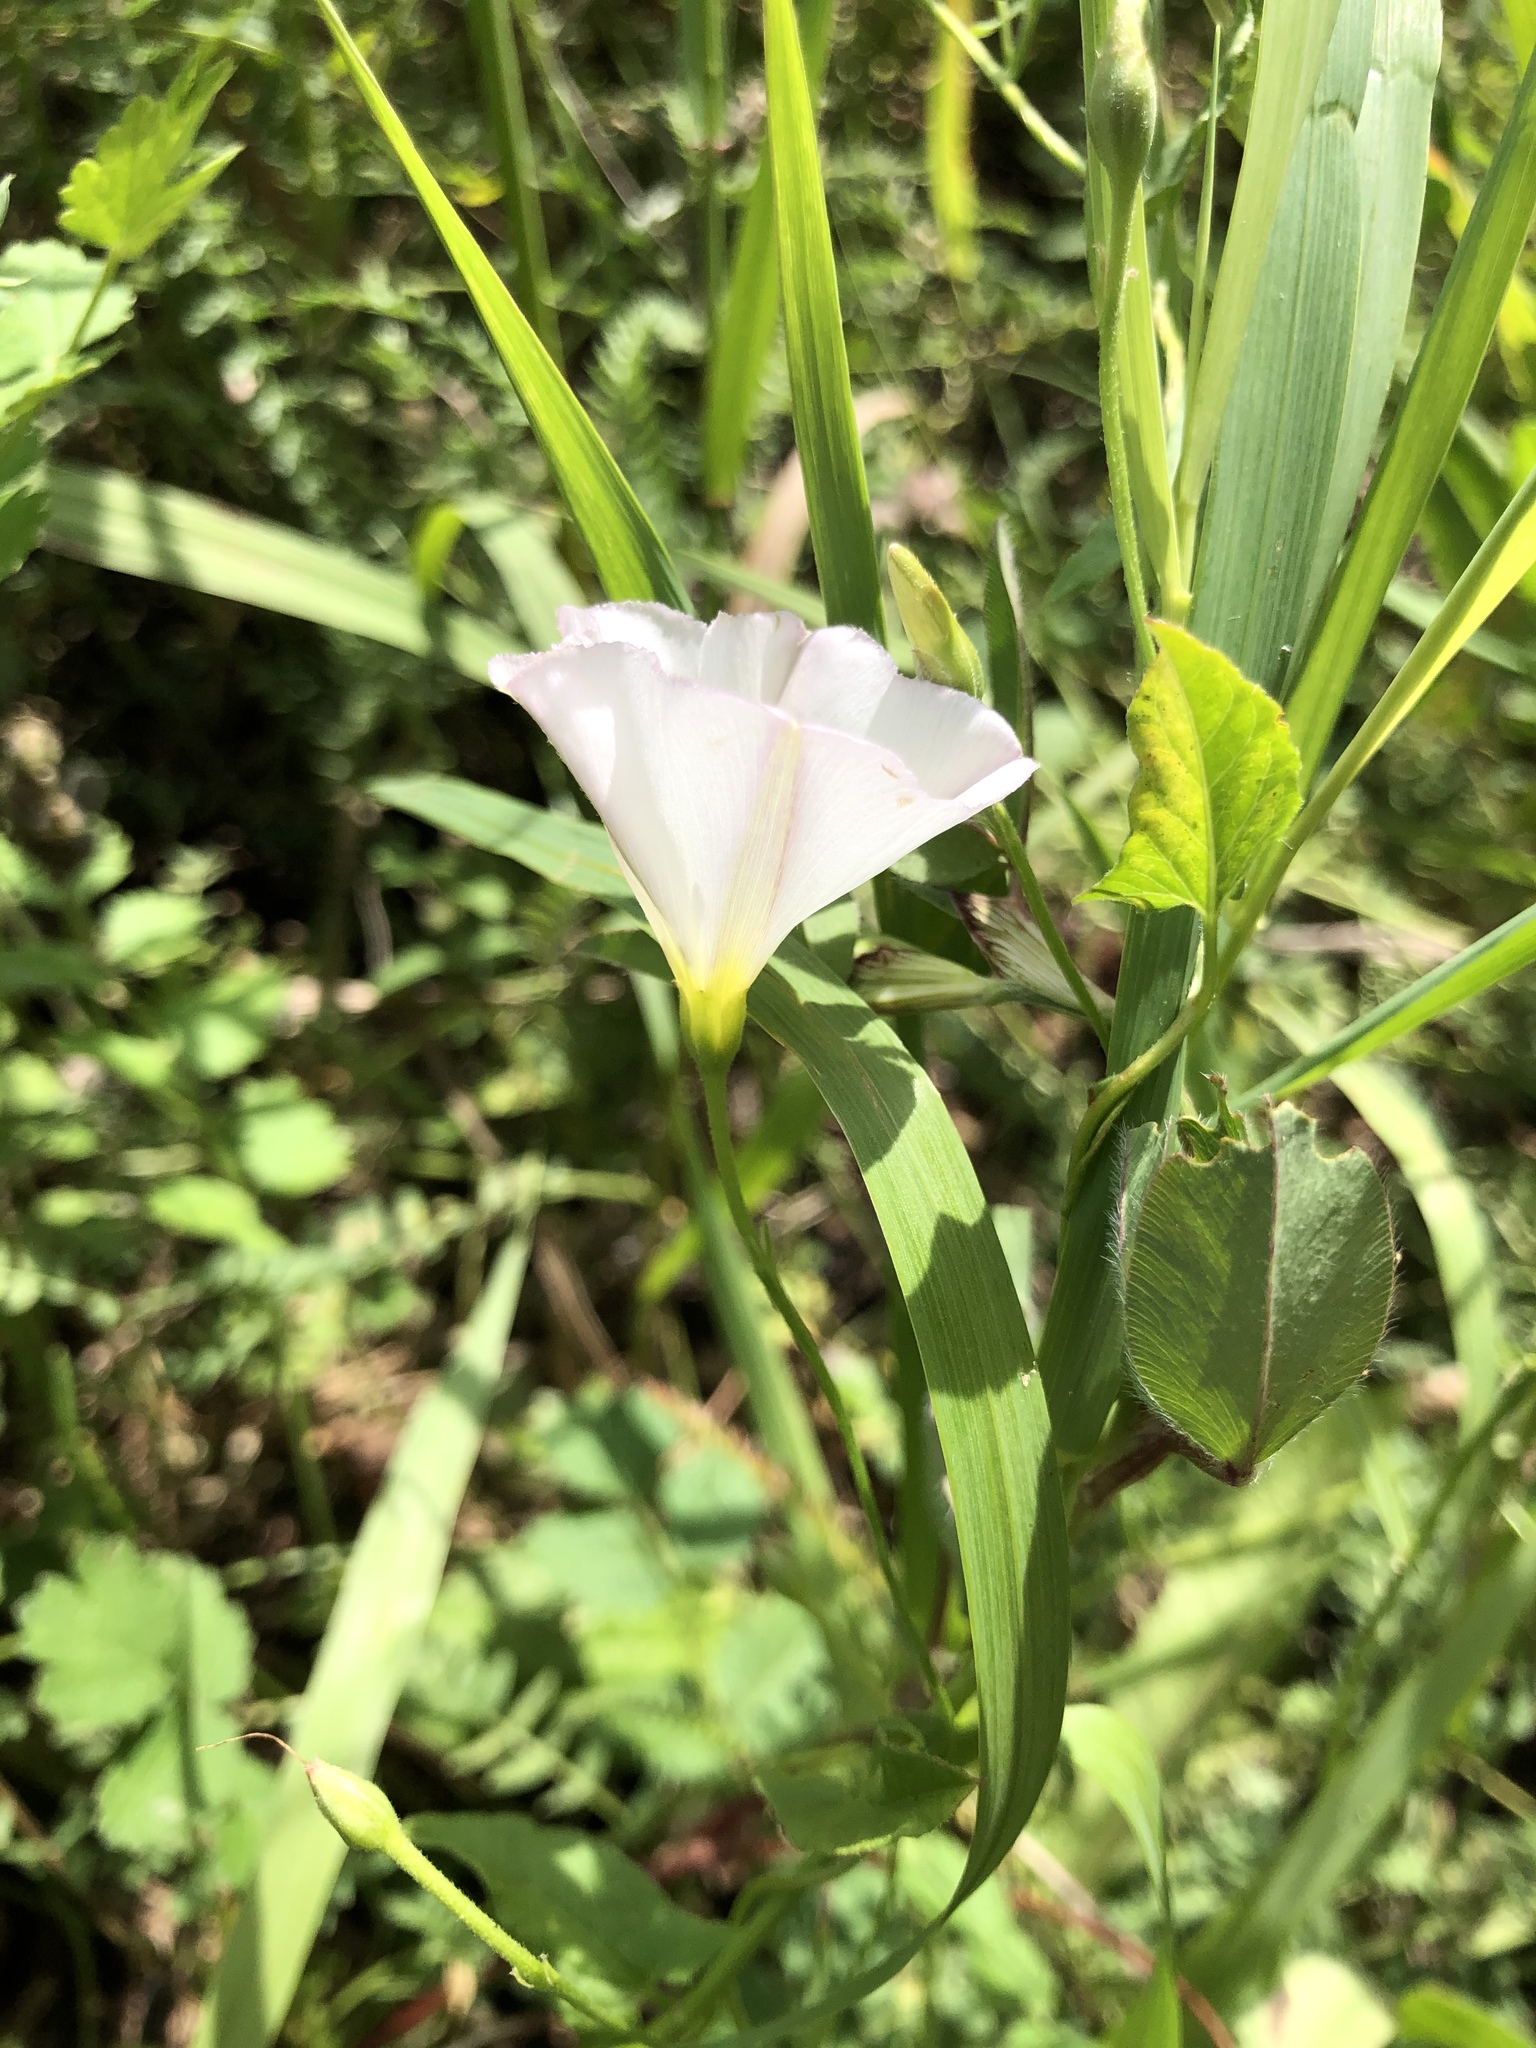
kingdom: Plantae
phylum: Tracheophyta
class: Magnoliopsida
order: Solanales
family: Convolvulaceae
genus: Convolvulus
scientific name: Convolvulus arvensis
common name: Field bindweed
